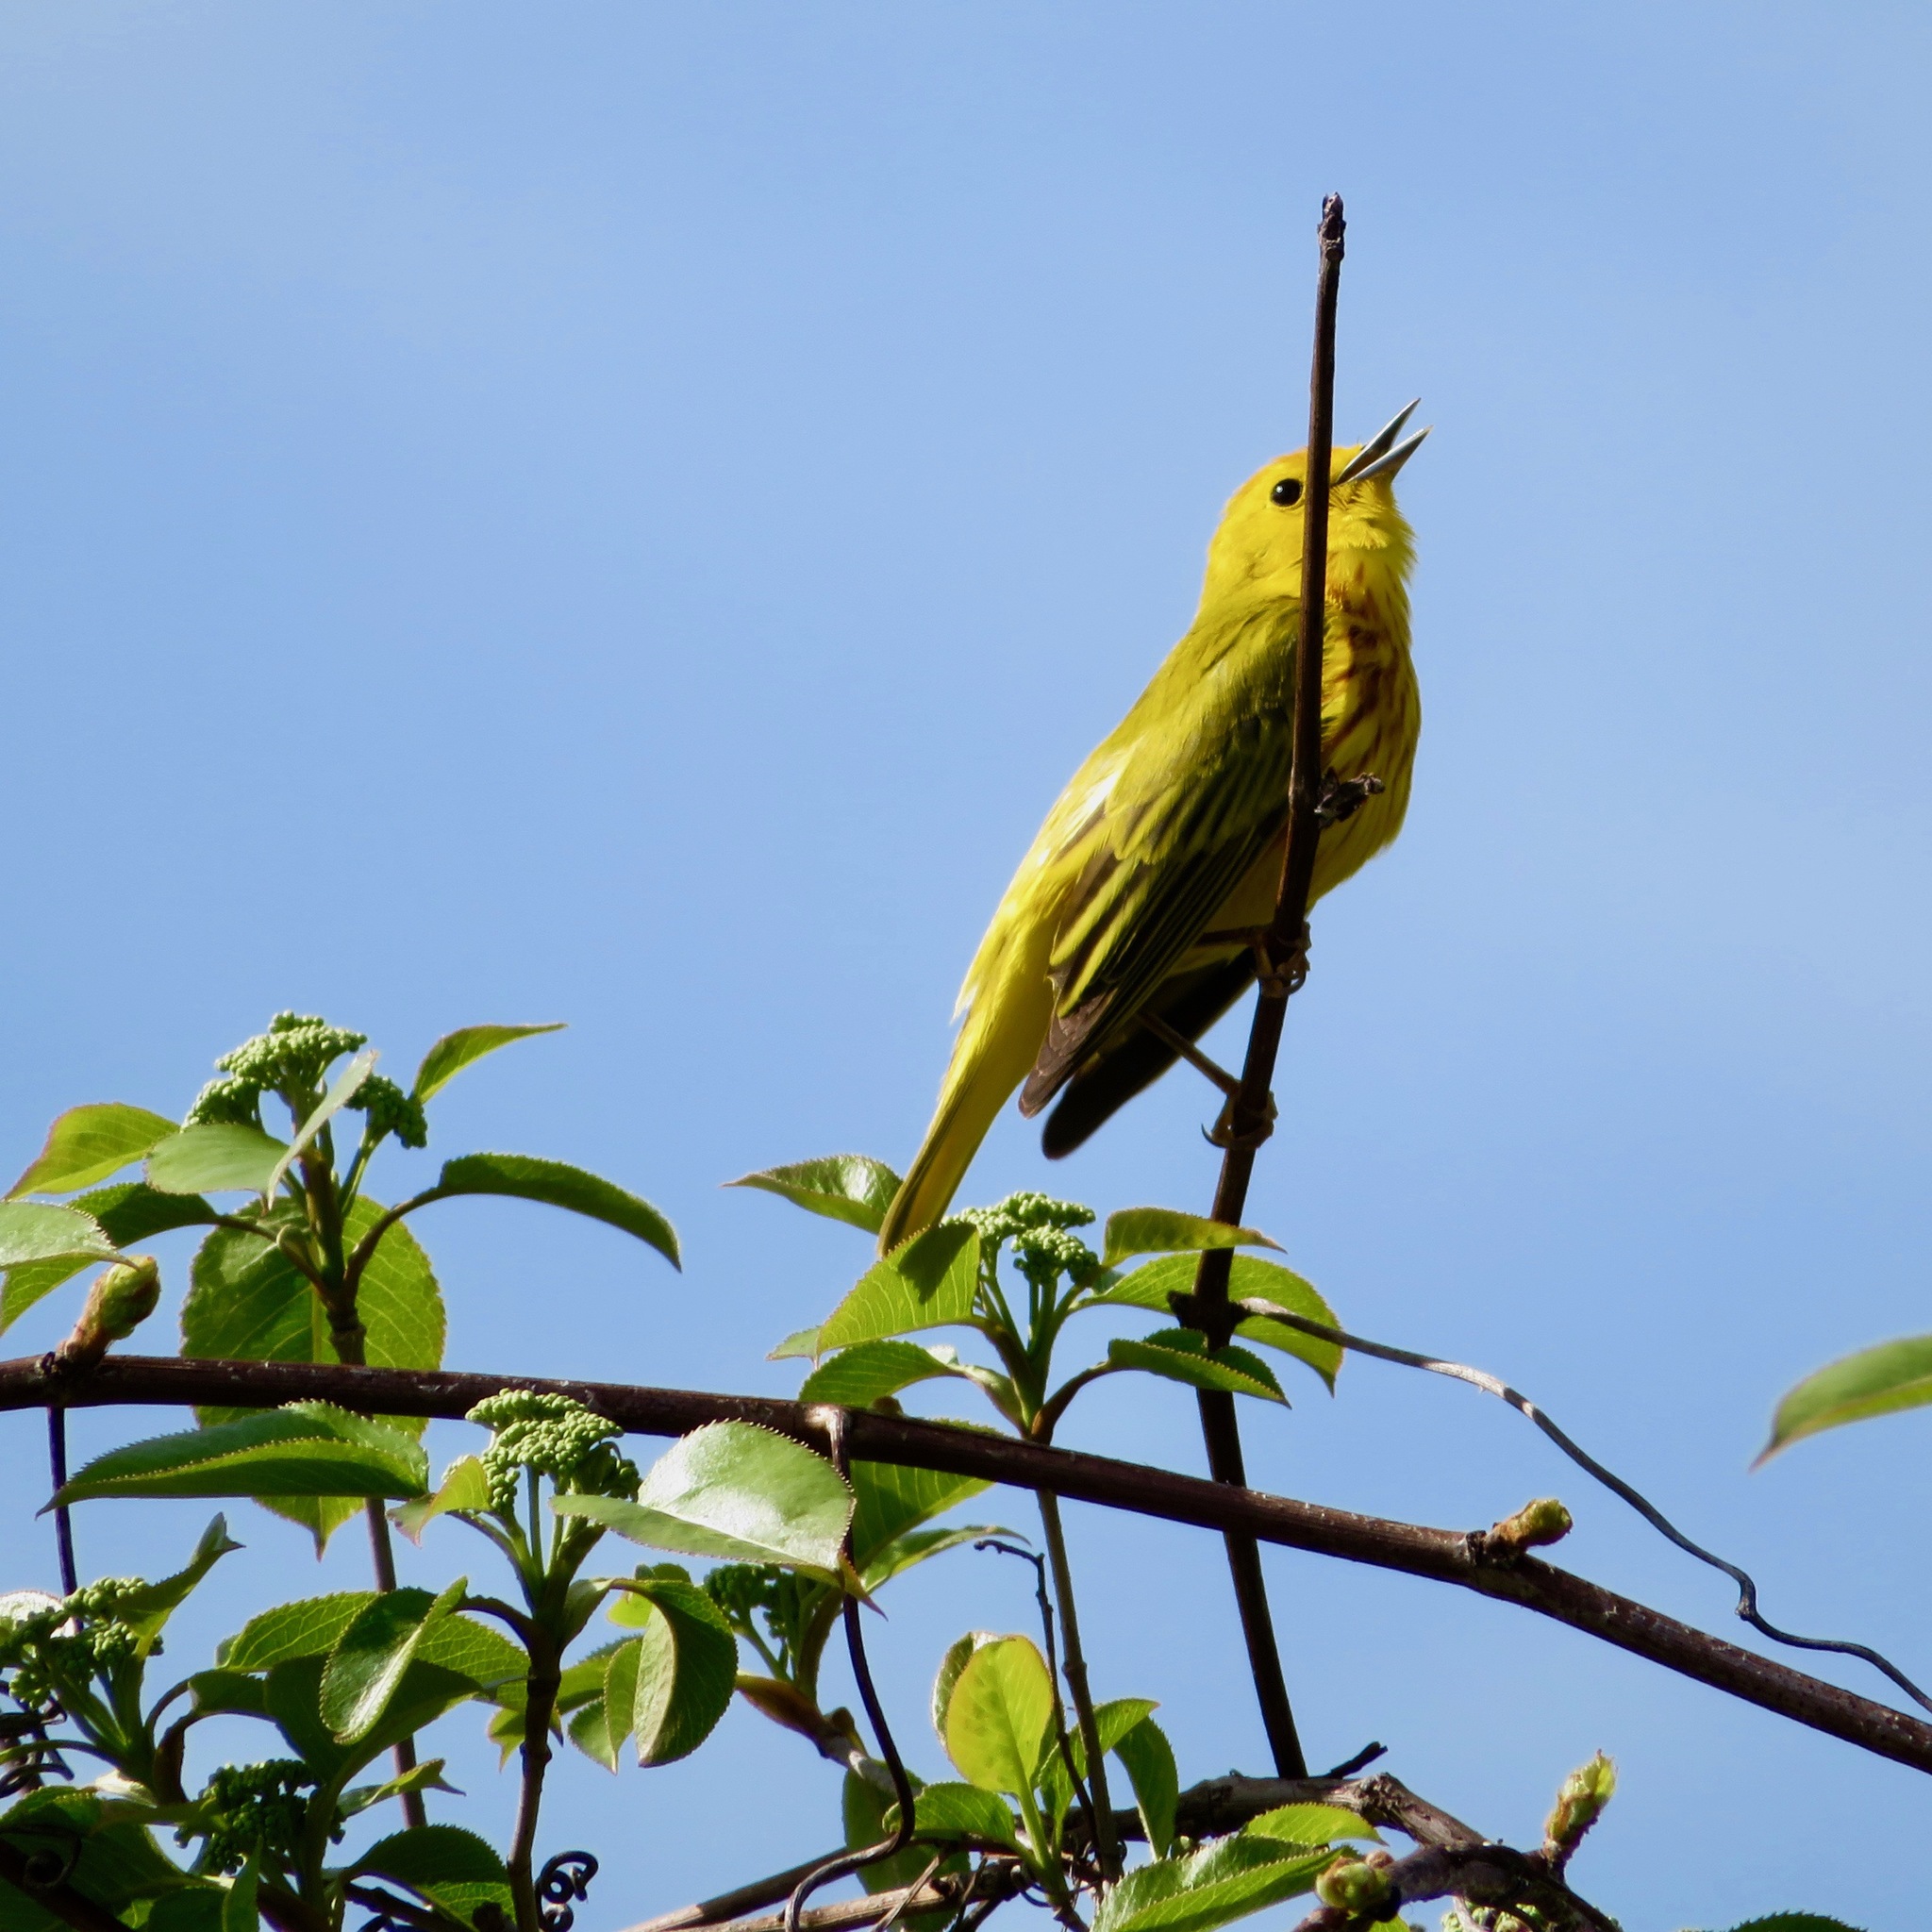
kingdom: Animalia
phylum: Chordata
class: Aves
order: Passeriformes
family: Parulidae
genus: Setophaga
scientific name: Setophaga petechia
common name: Yellow warbler
